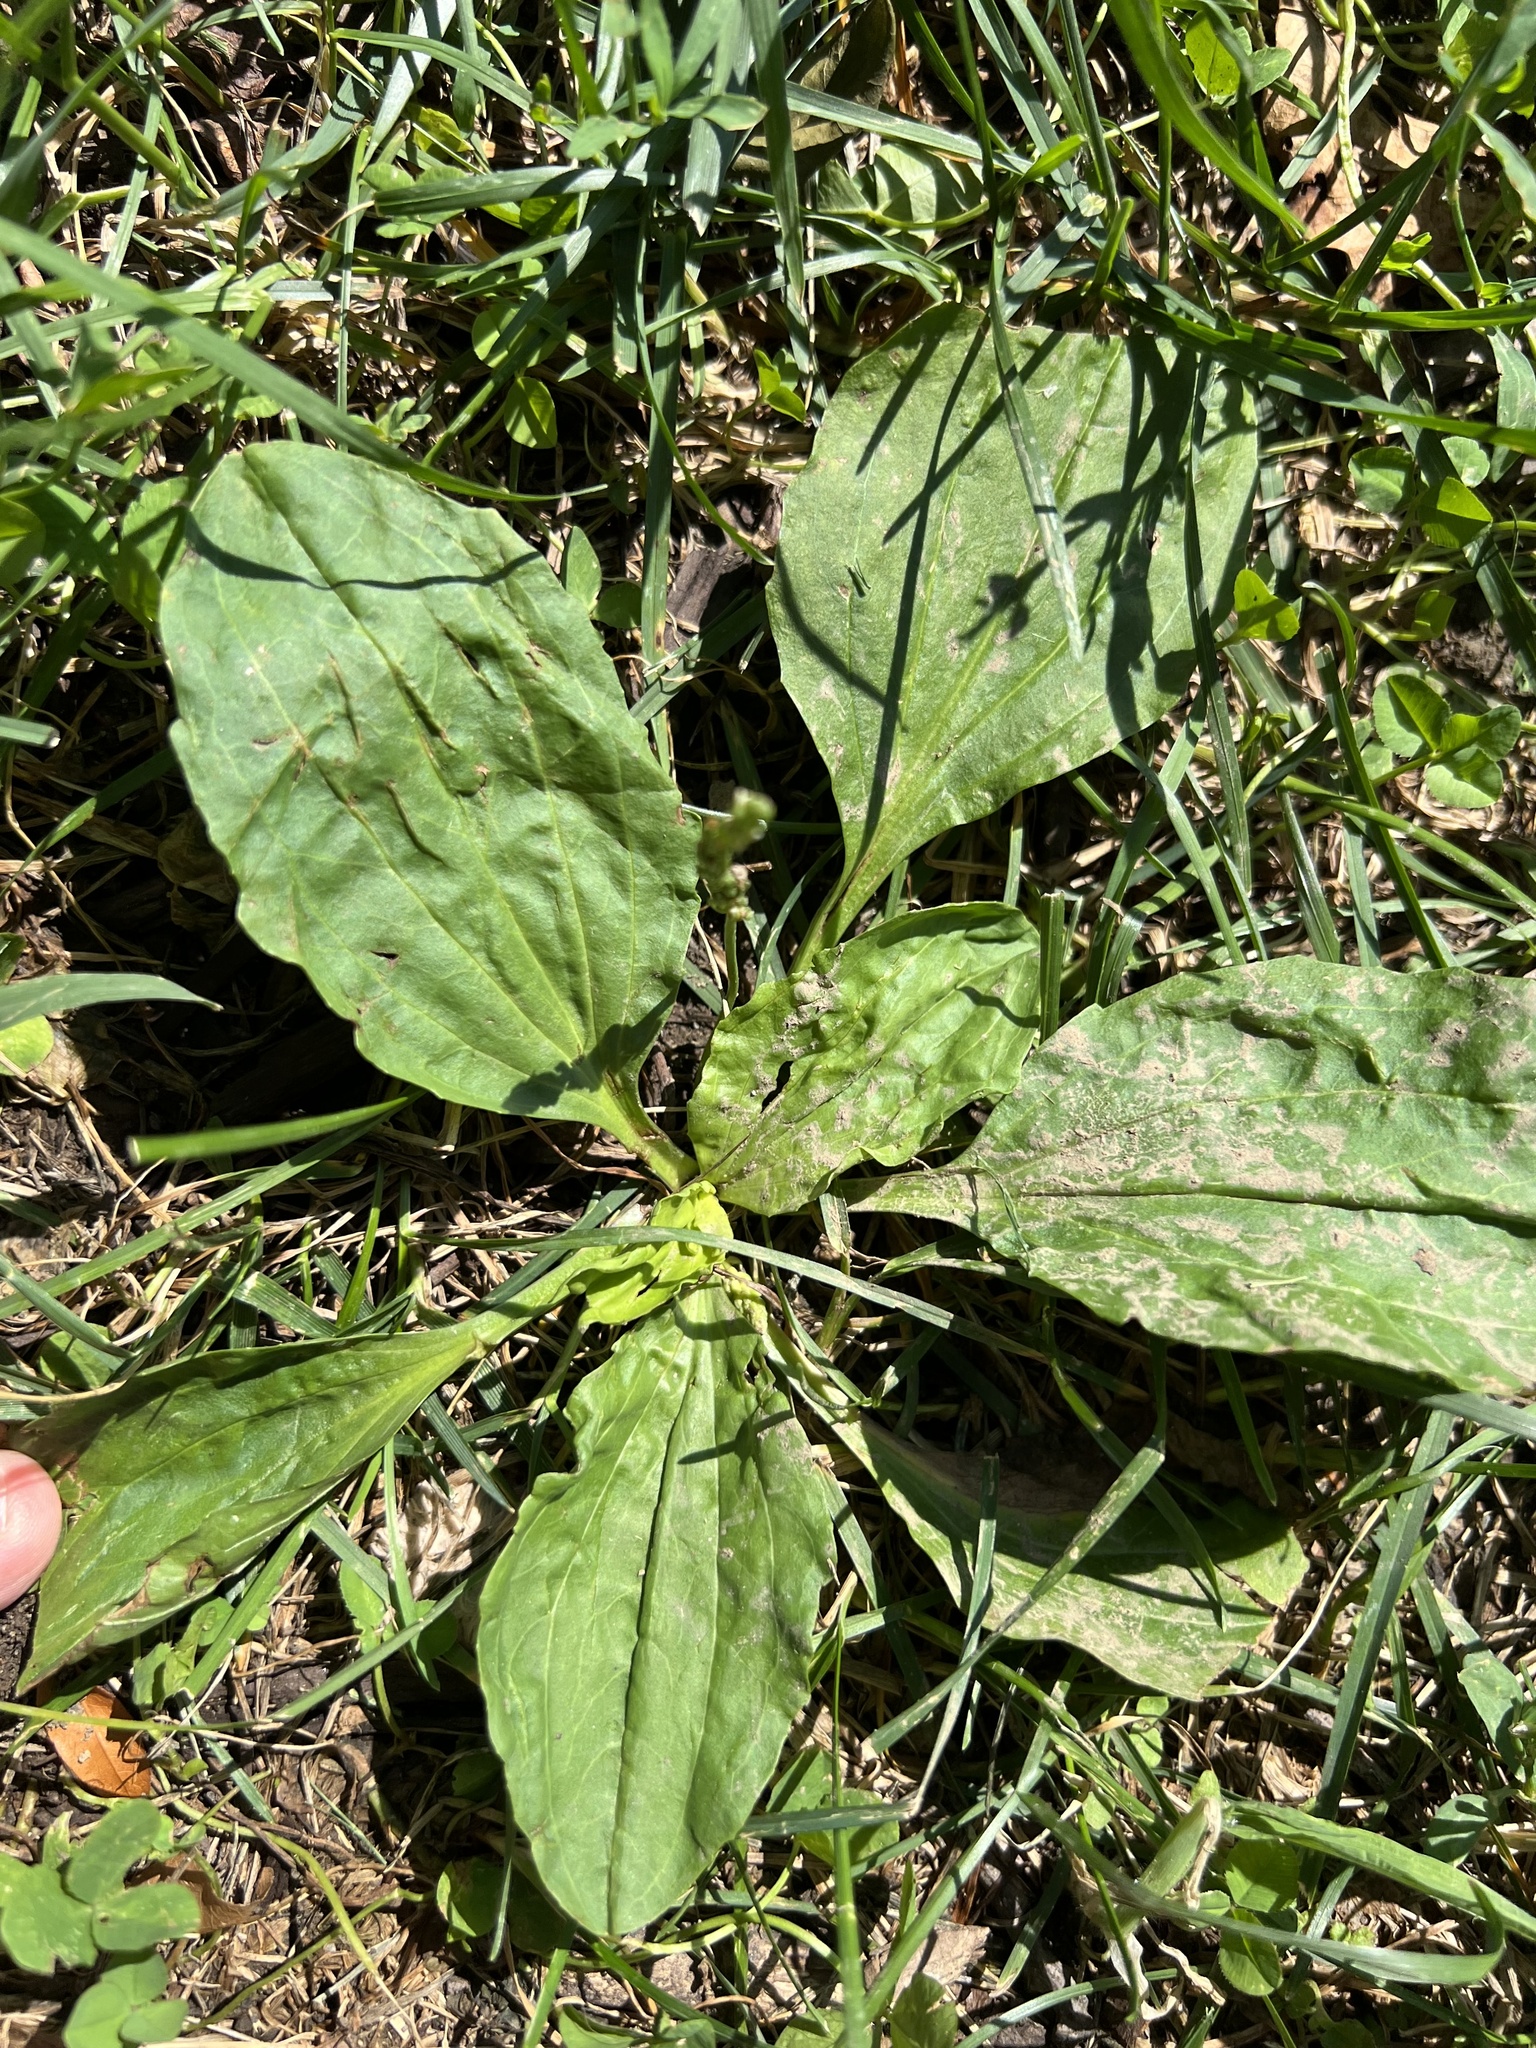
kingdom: Plantae
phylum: Tracheophyta
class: Magnoliopsida
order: Lamiales
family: Plantaginaceae
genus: Plantago
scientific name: Plantago major
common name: Common plantain
